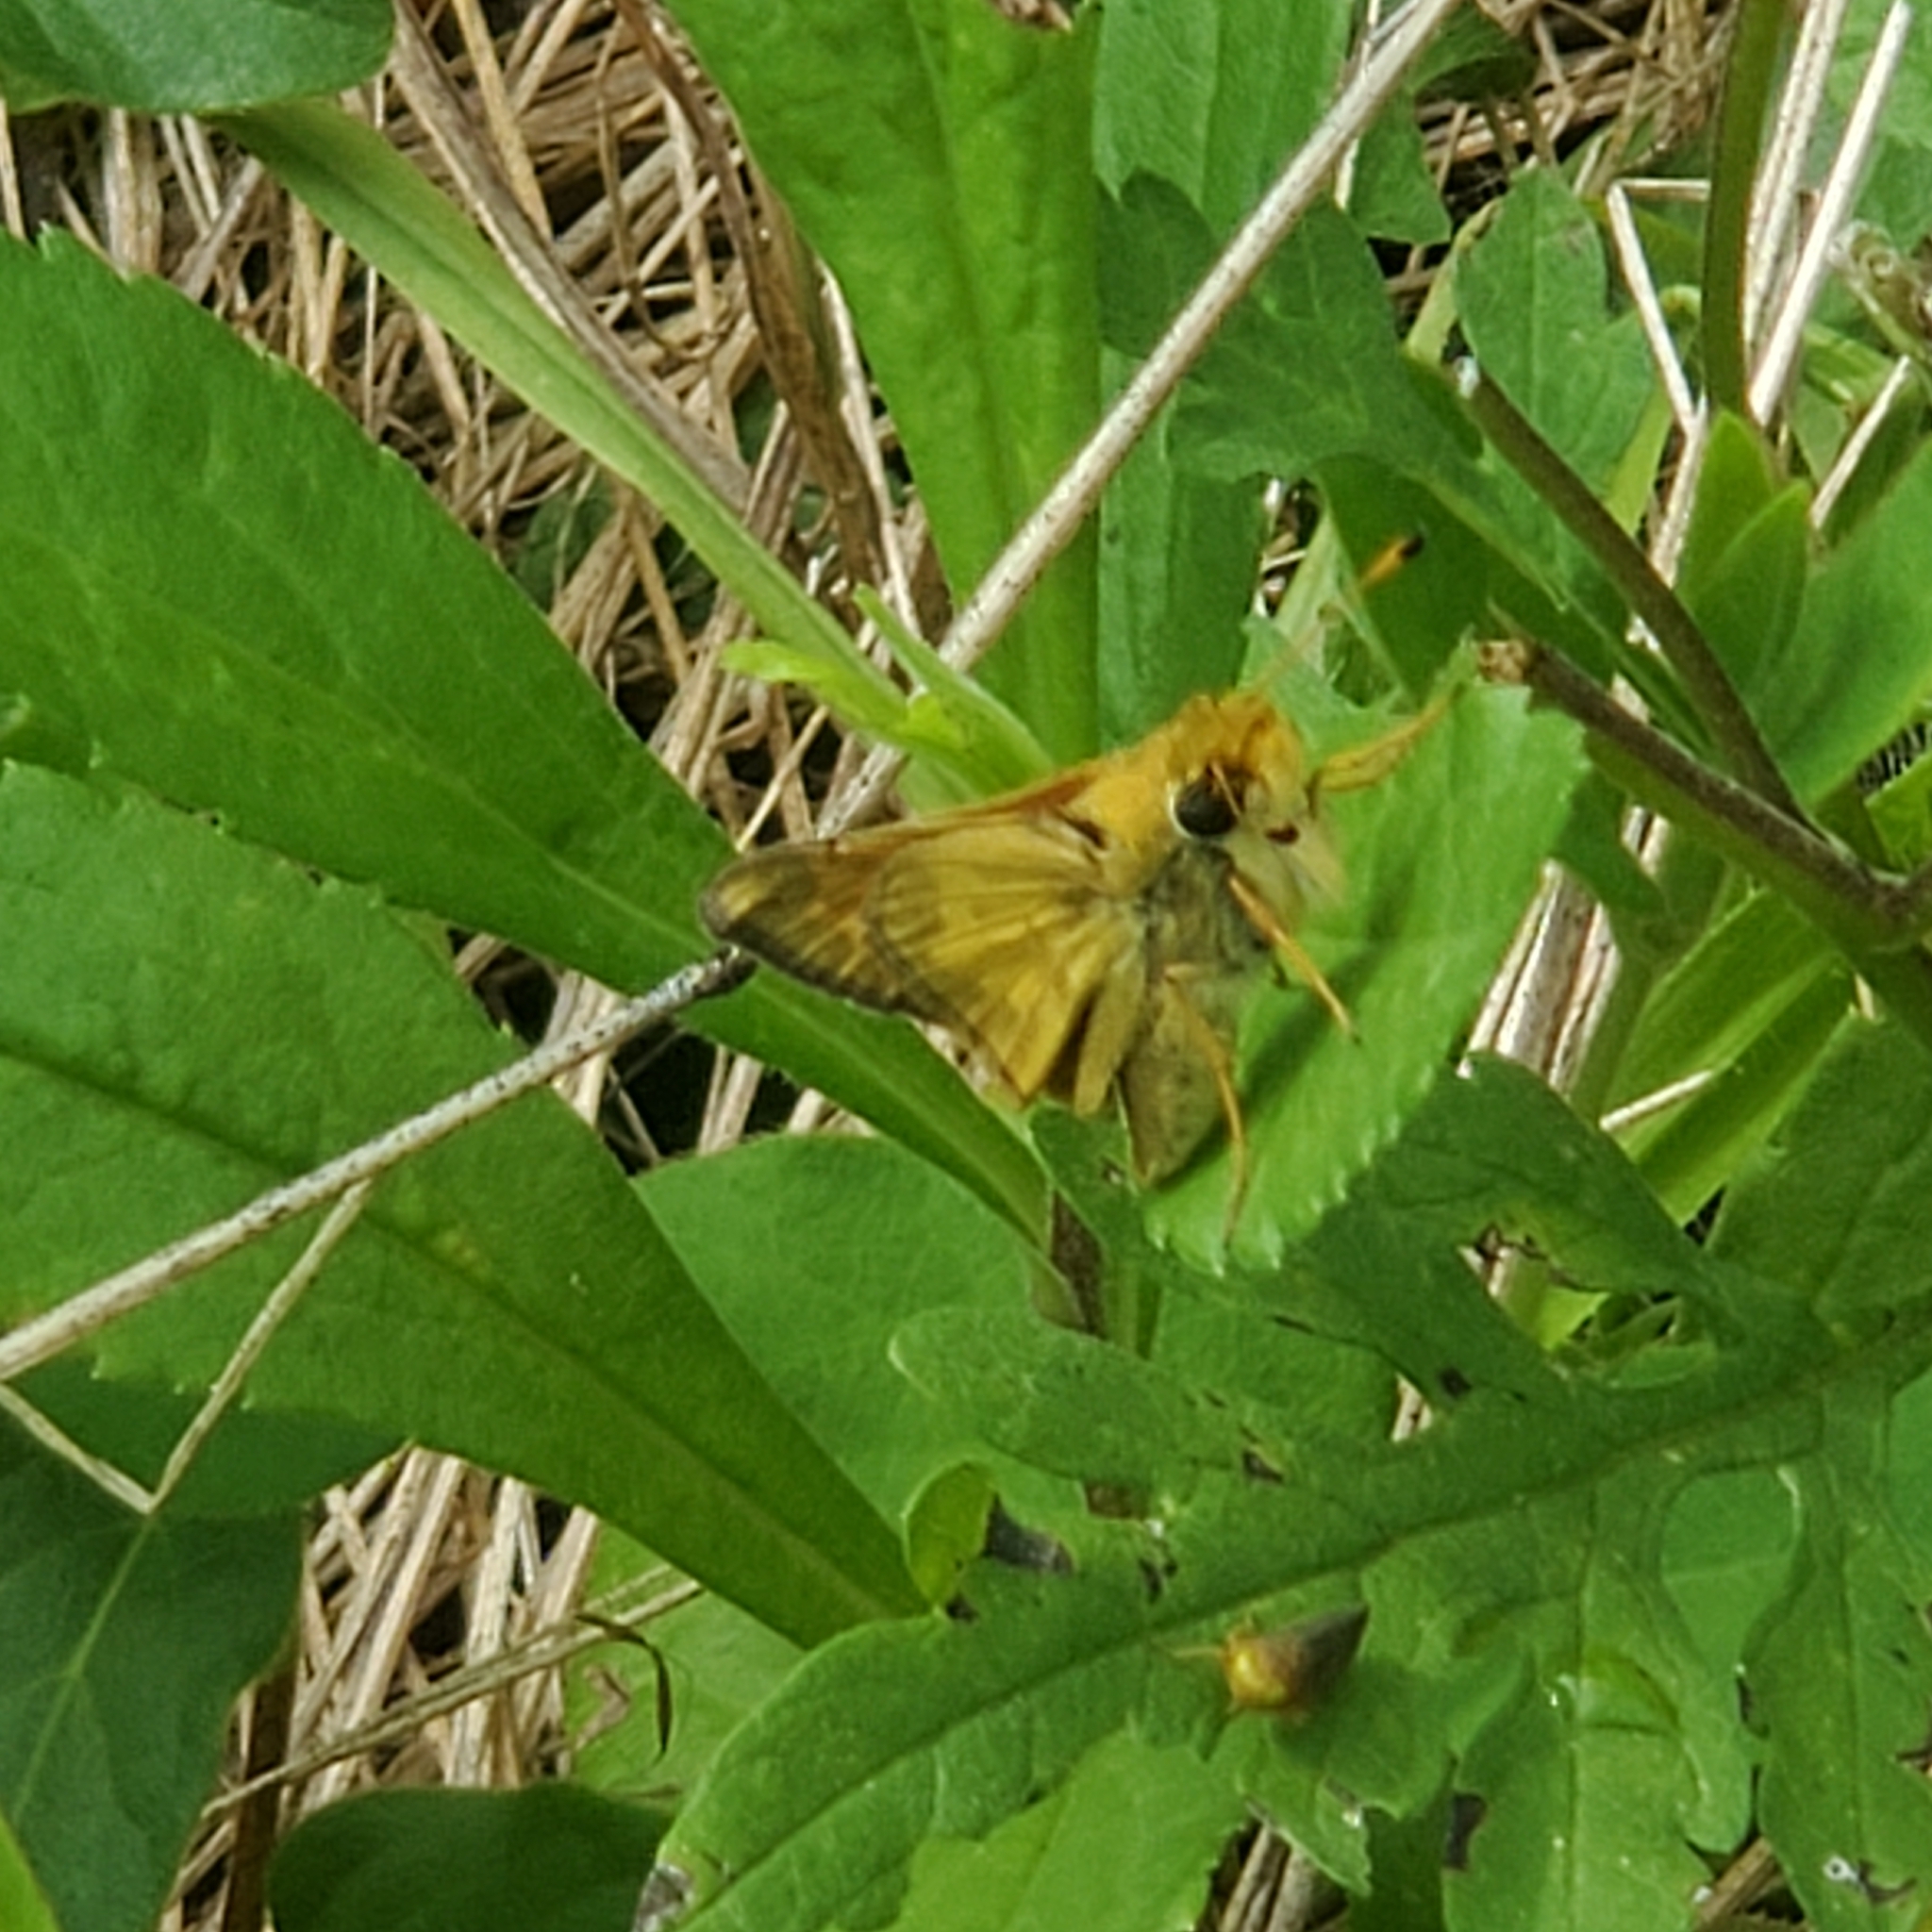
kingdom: Animalia
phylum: Arthropoda
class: Insecta
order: Lepidoptera
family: Hesperiidae
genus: Atalopedes
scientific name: Atalopedes
